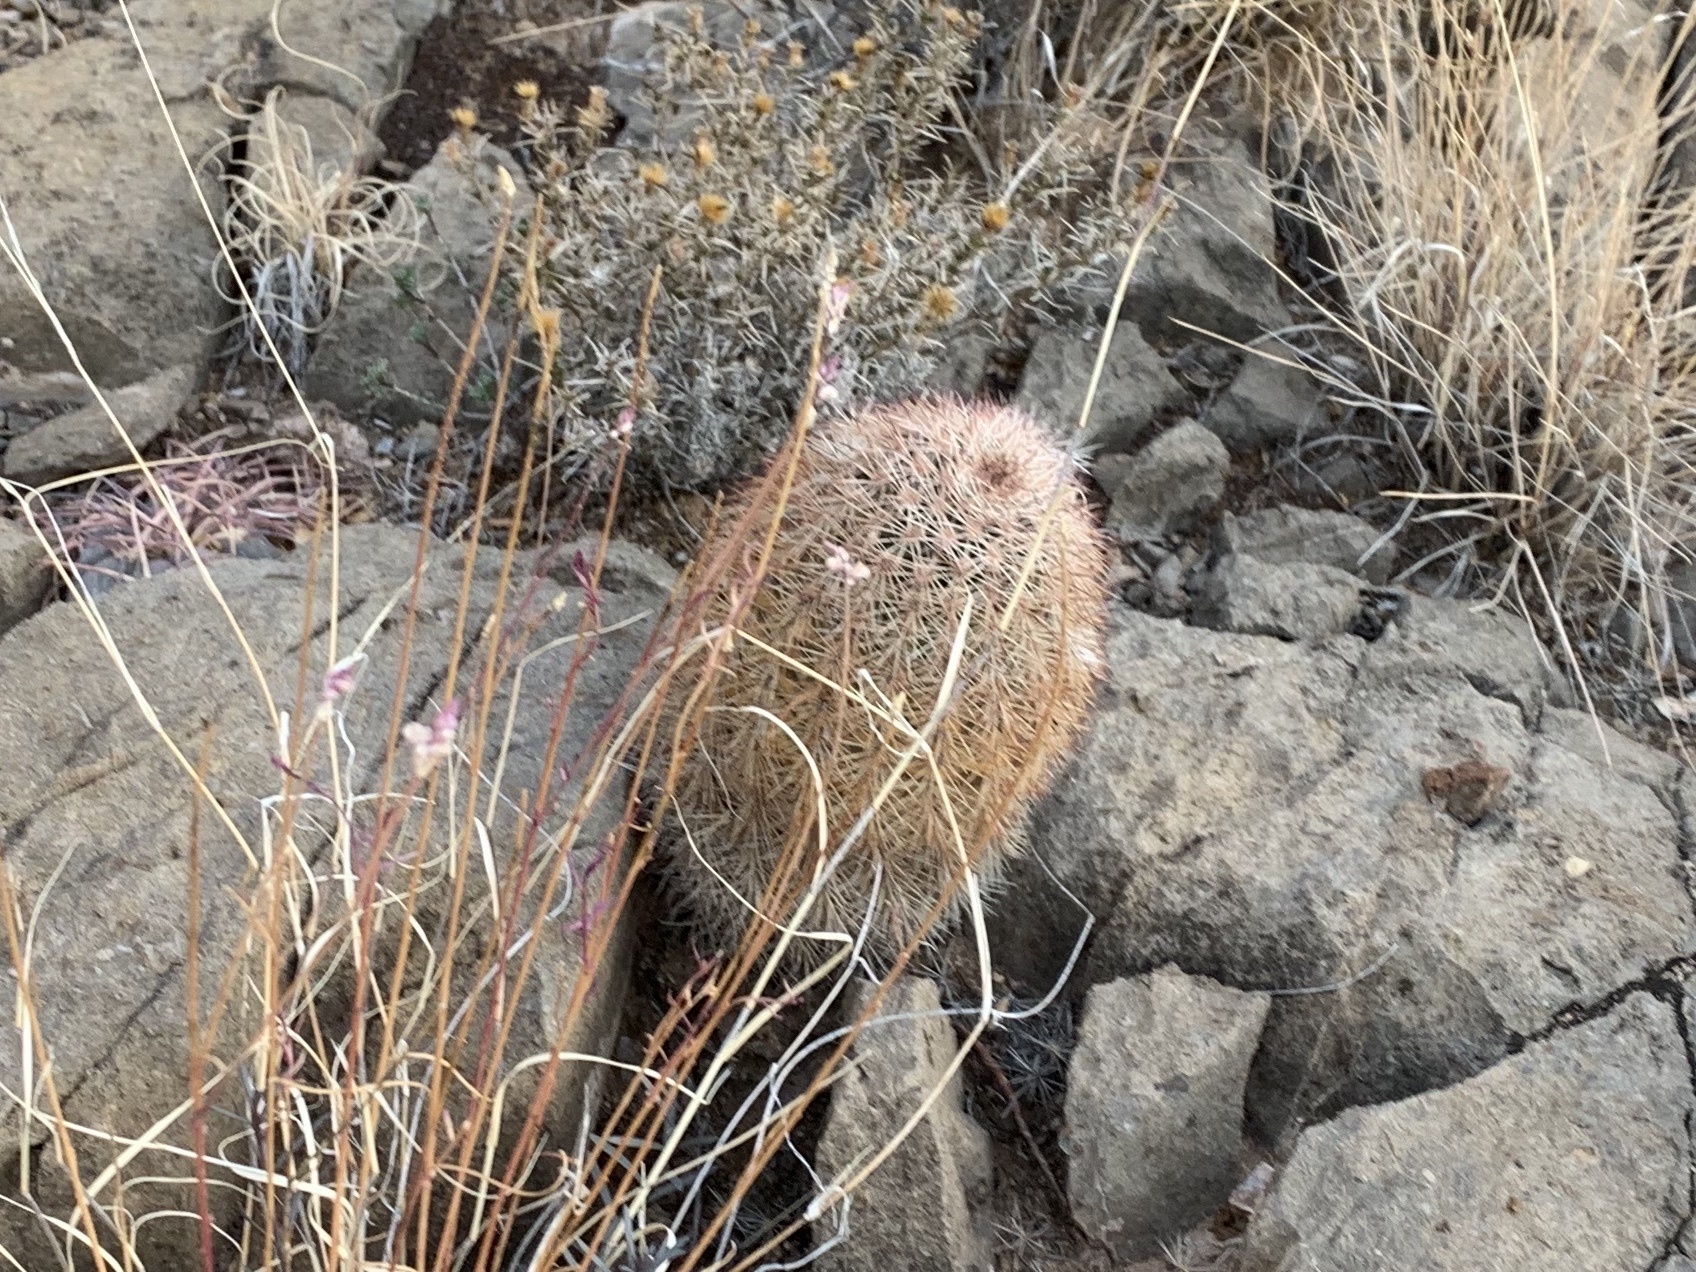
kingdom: Plantae
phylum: Tracheophyta
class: Magnoliopsida
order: Caryophyllales
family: Cactaceae
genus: Echinocereus
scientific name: Echinocereus dasyacanthus
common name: Spiny hedgehog cactus
